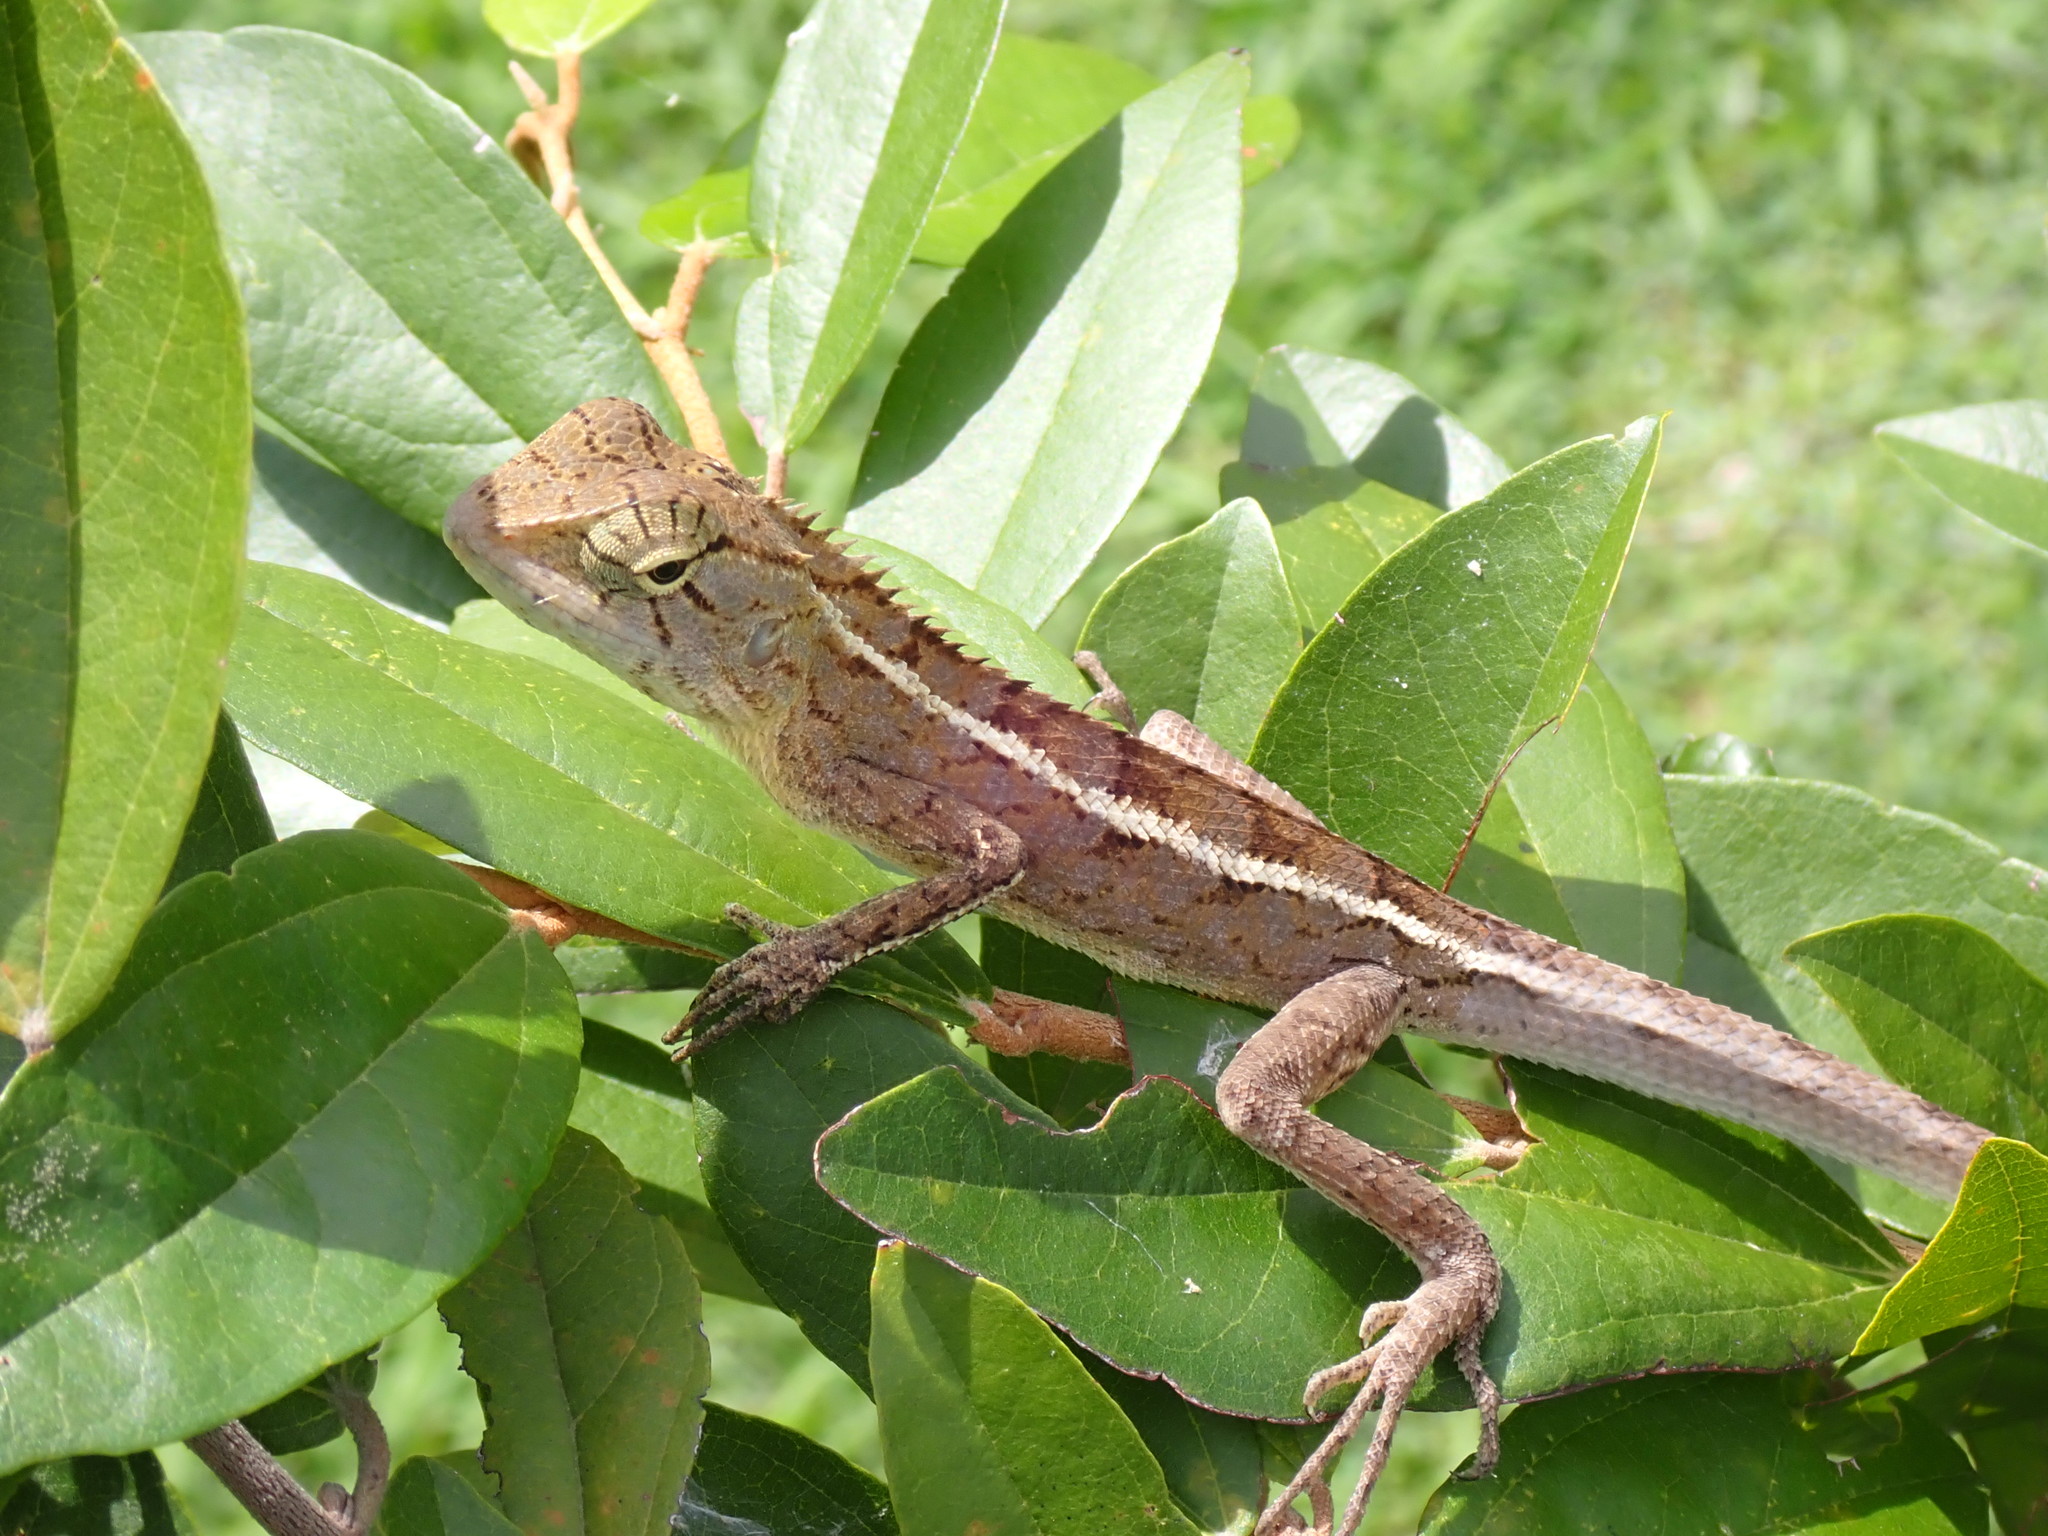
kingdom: Animalia
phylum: Chordata
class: Squamata
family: Agamidae
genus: Calotes
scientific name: Calotes versicolor
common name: Oriental garden lizard
